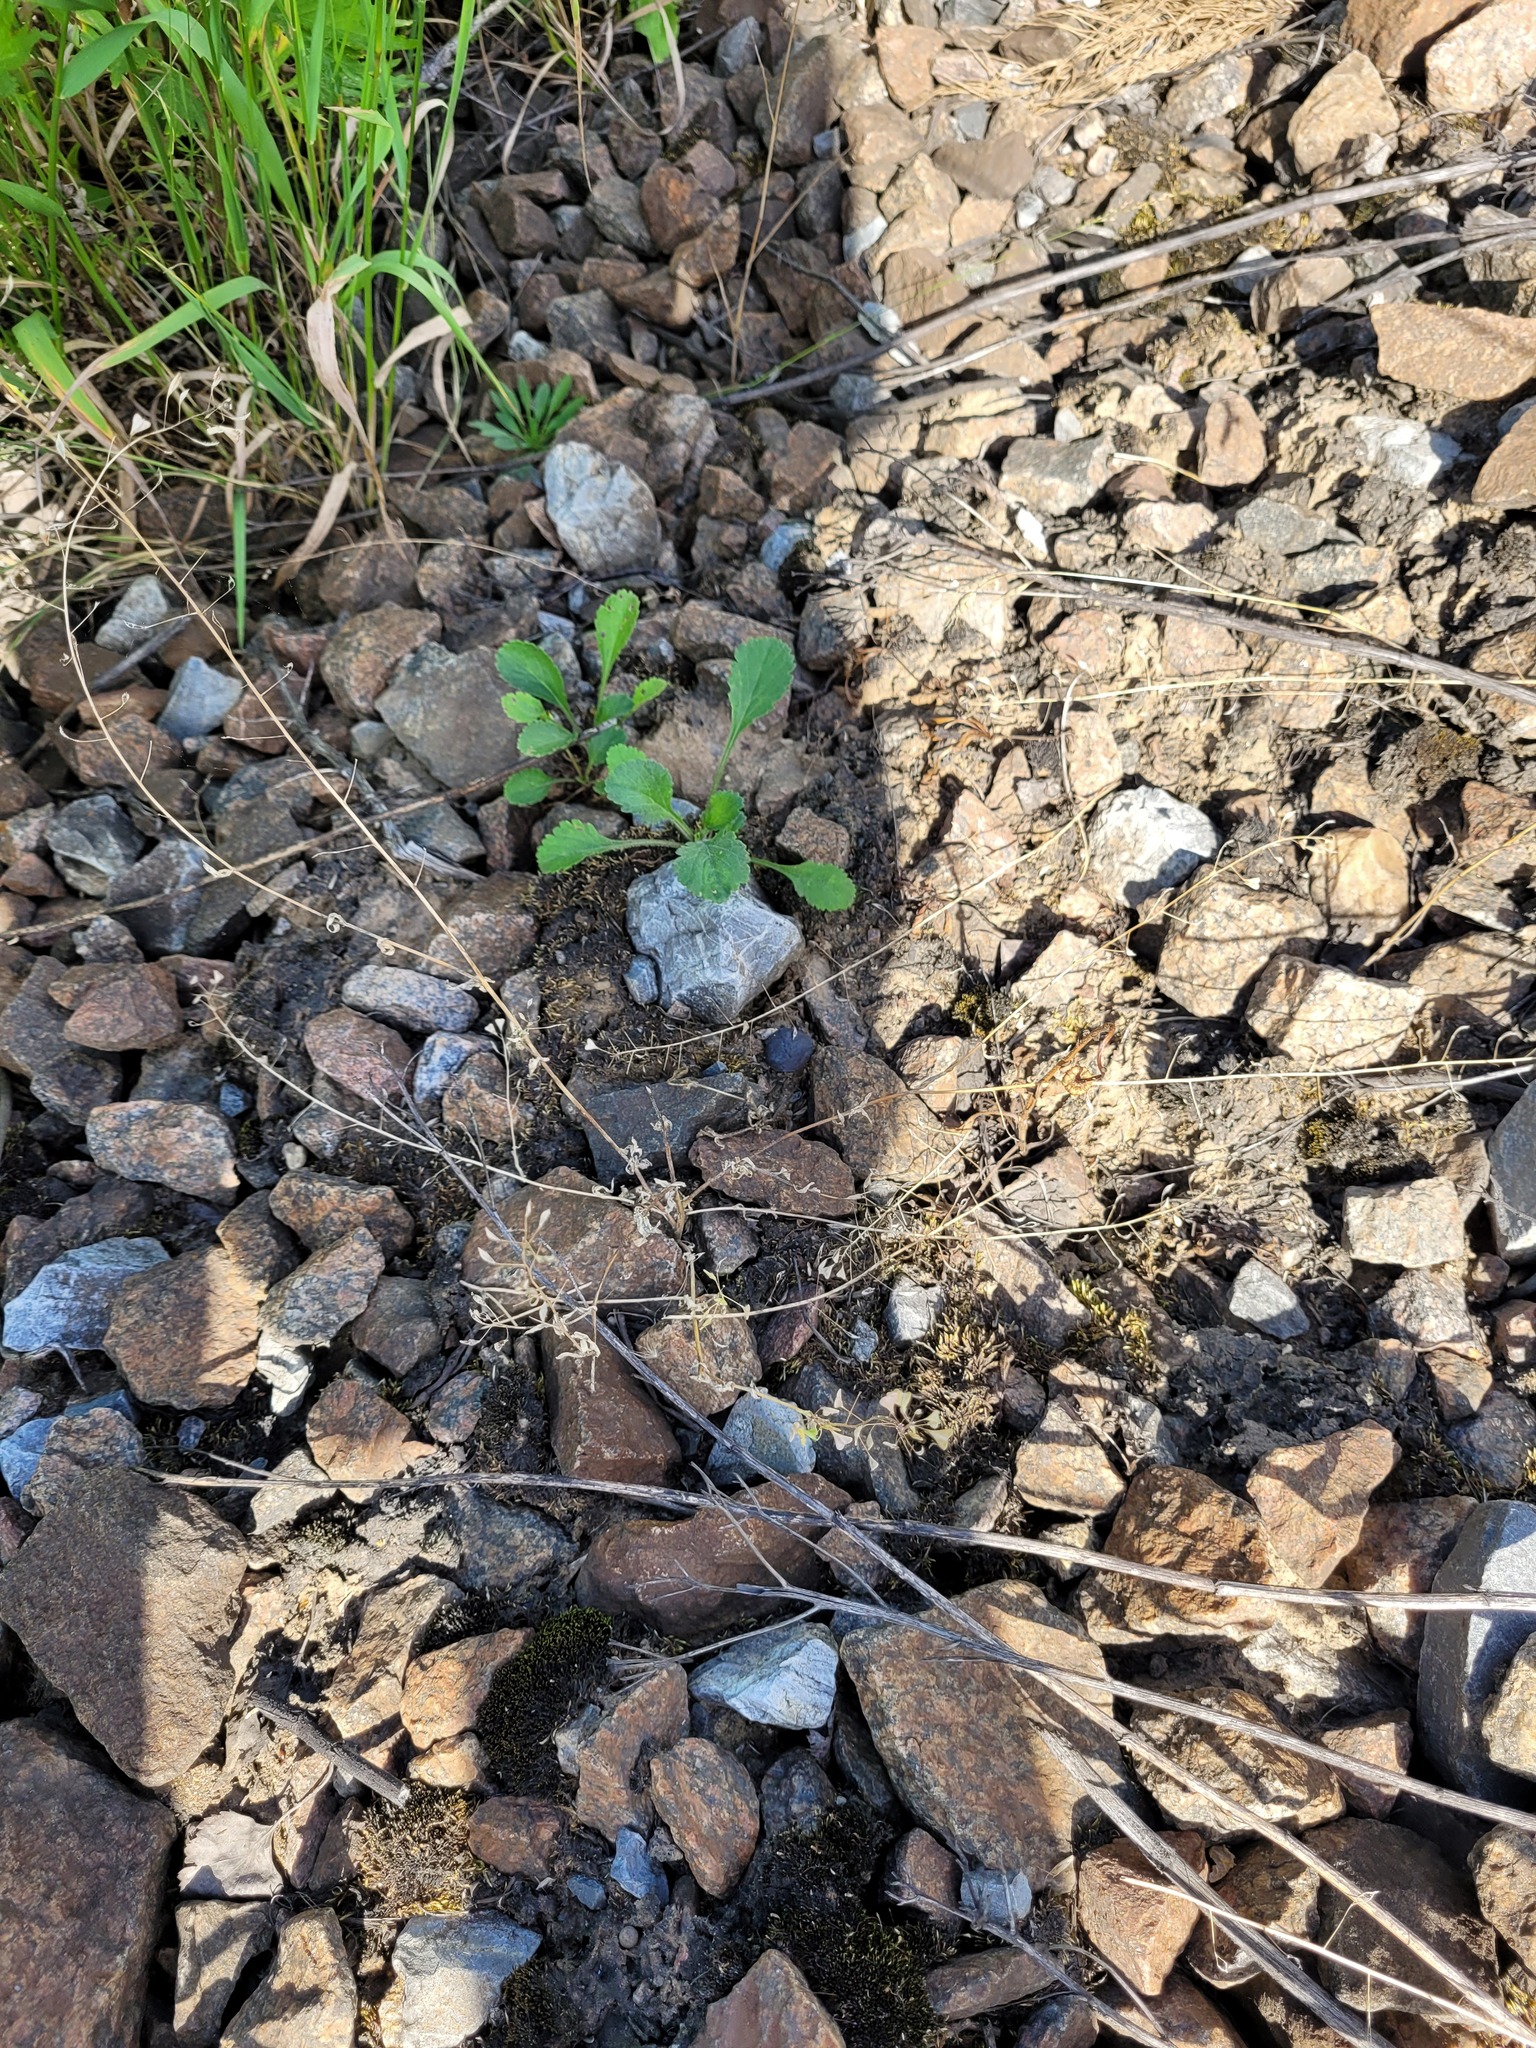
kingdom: Plantae
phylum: Tracheophyta
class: Magnoliopsida
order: Brassicales
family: Brassicaceae
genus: Capsella
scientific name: Capsella bursa-pastoris
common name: Shepherd's purse
